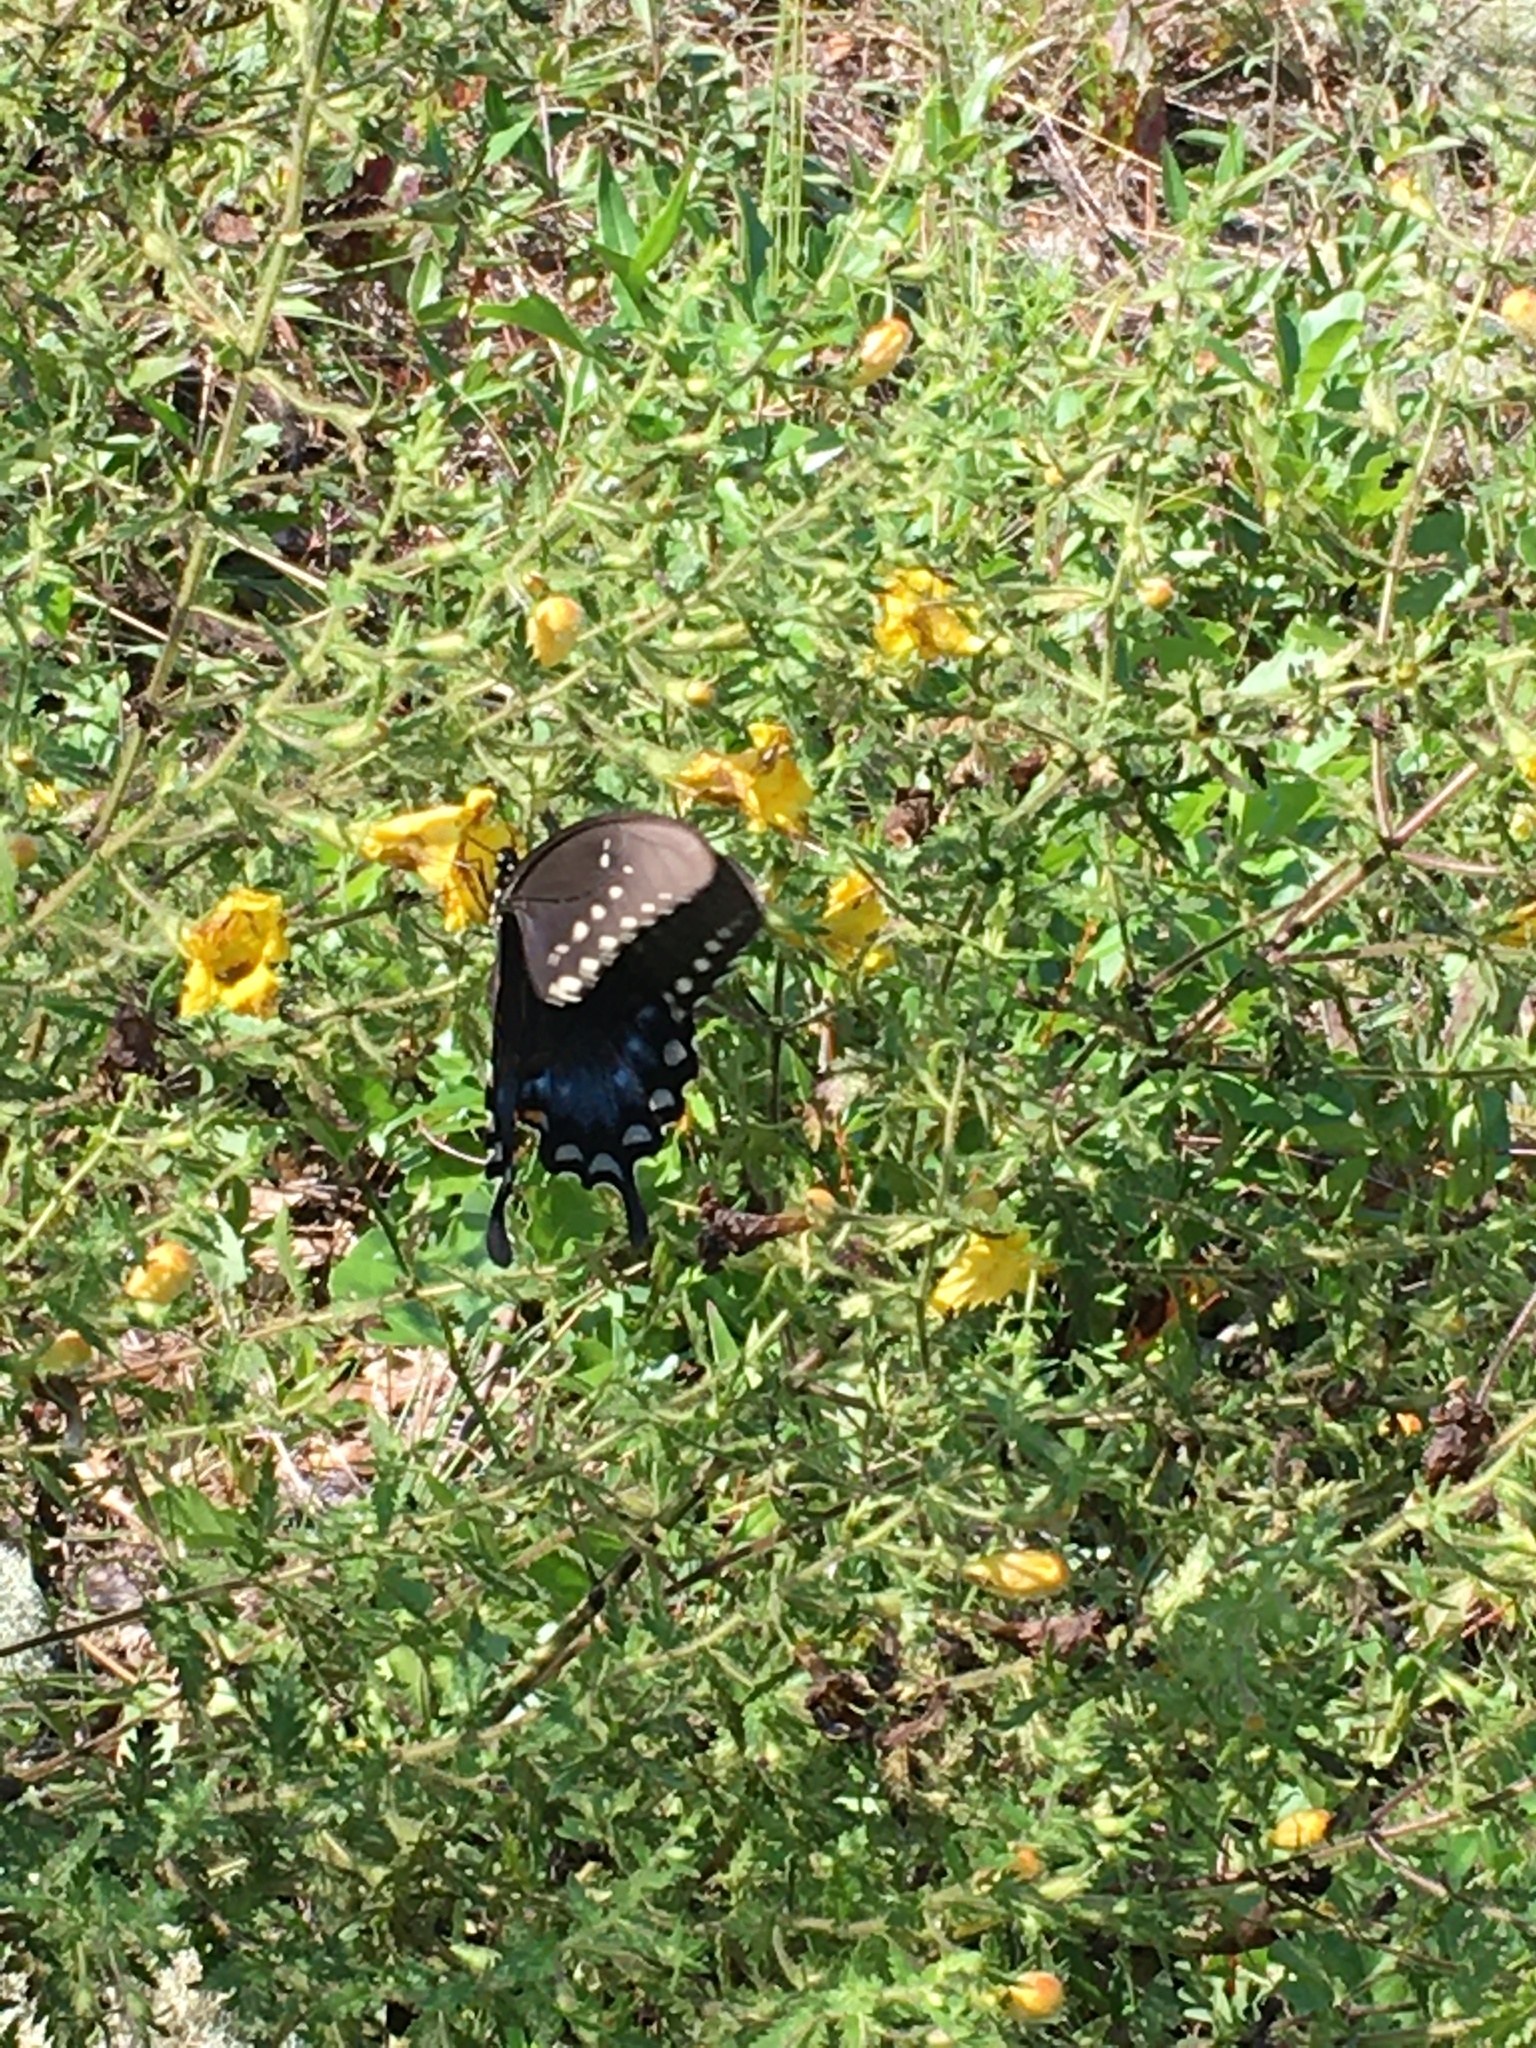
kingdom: Animalia
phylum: Arthropoda
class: Insecta
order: Lepidoptera
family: Papilionidae
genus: Papilio
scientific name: Papilio troilus
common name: Spicebush swallowtail
